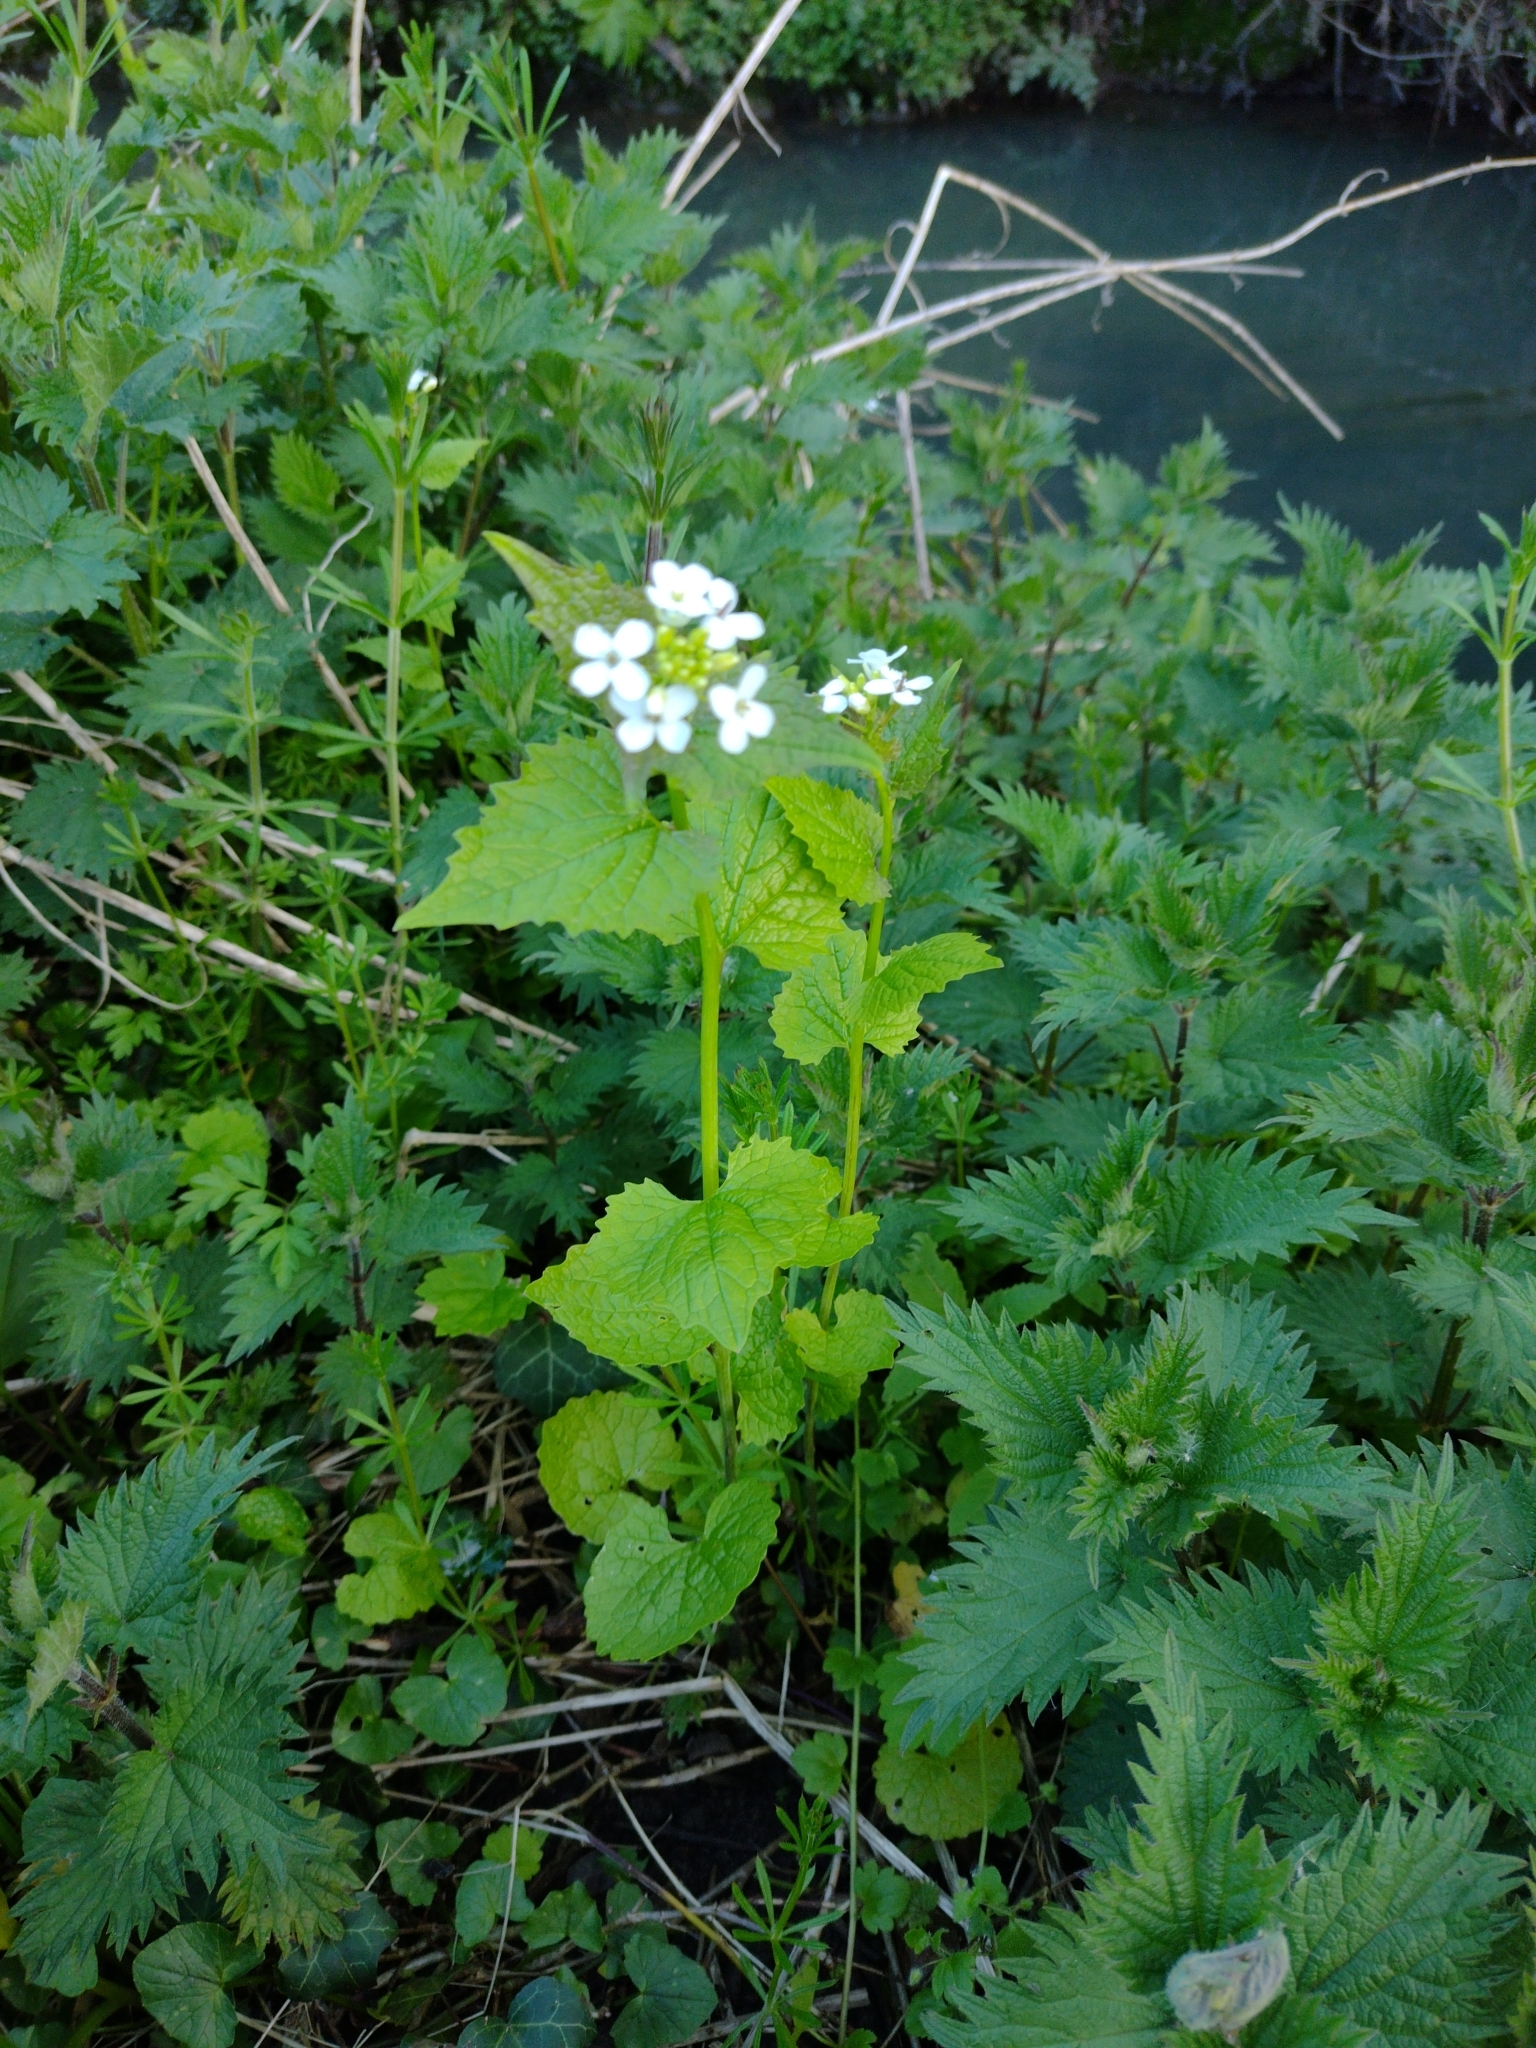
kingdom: Plantae
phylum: Tracheophyta
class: Magnoliopsida
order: Brassicales
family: Brassicaceae
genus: Alliaria
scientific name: Alliaria petiolata
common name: Garlic mustard
